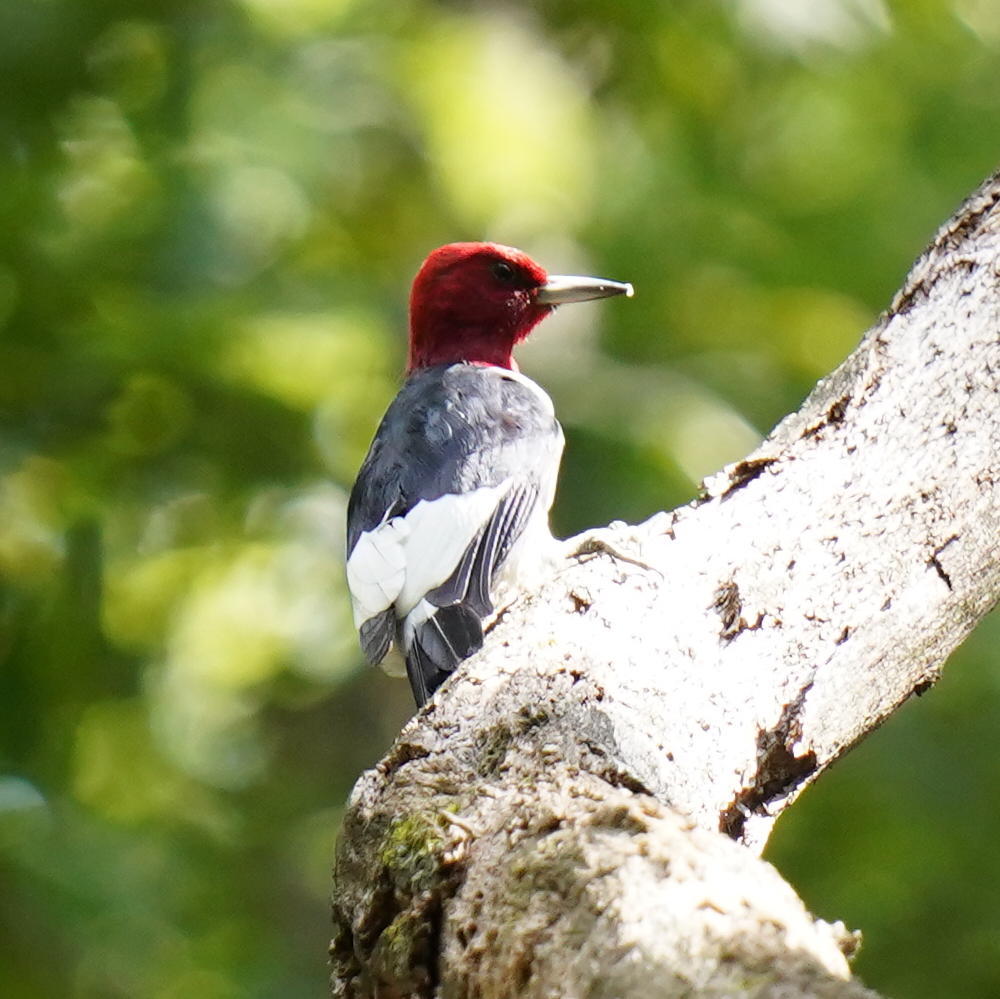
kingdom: Animalia
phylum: Chordata
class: Aves
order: Piciformes
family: Picidae
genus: Melanerpes
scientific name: Melanerpes erythrocephalus
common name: Red-headed woodpecker
